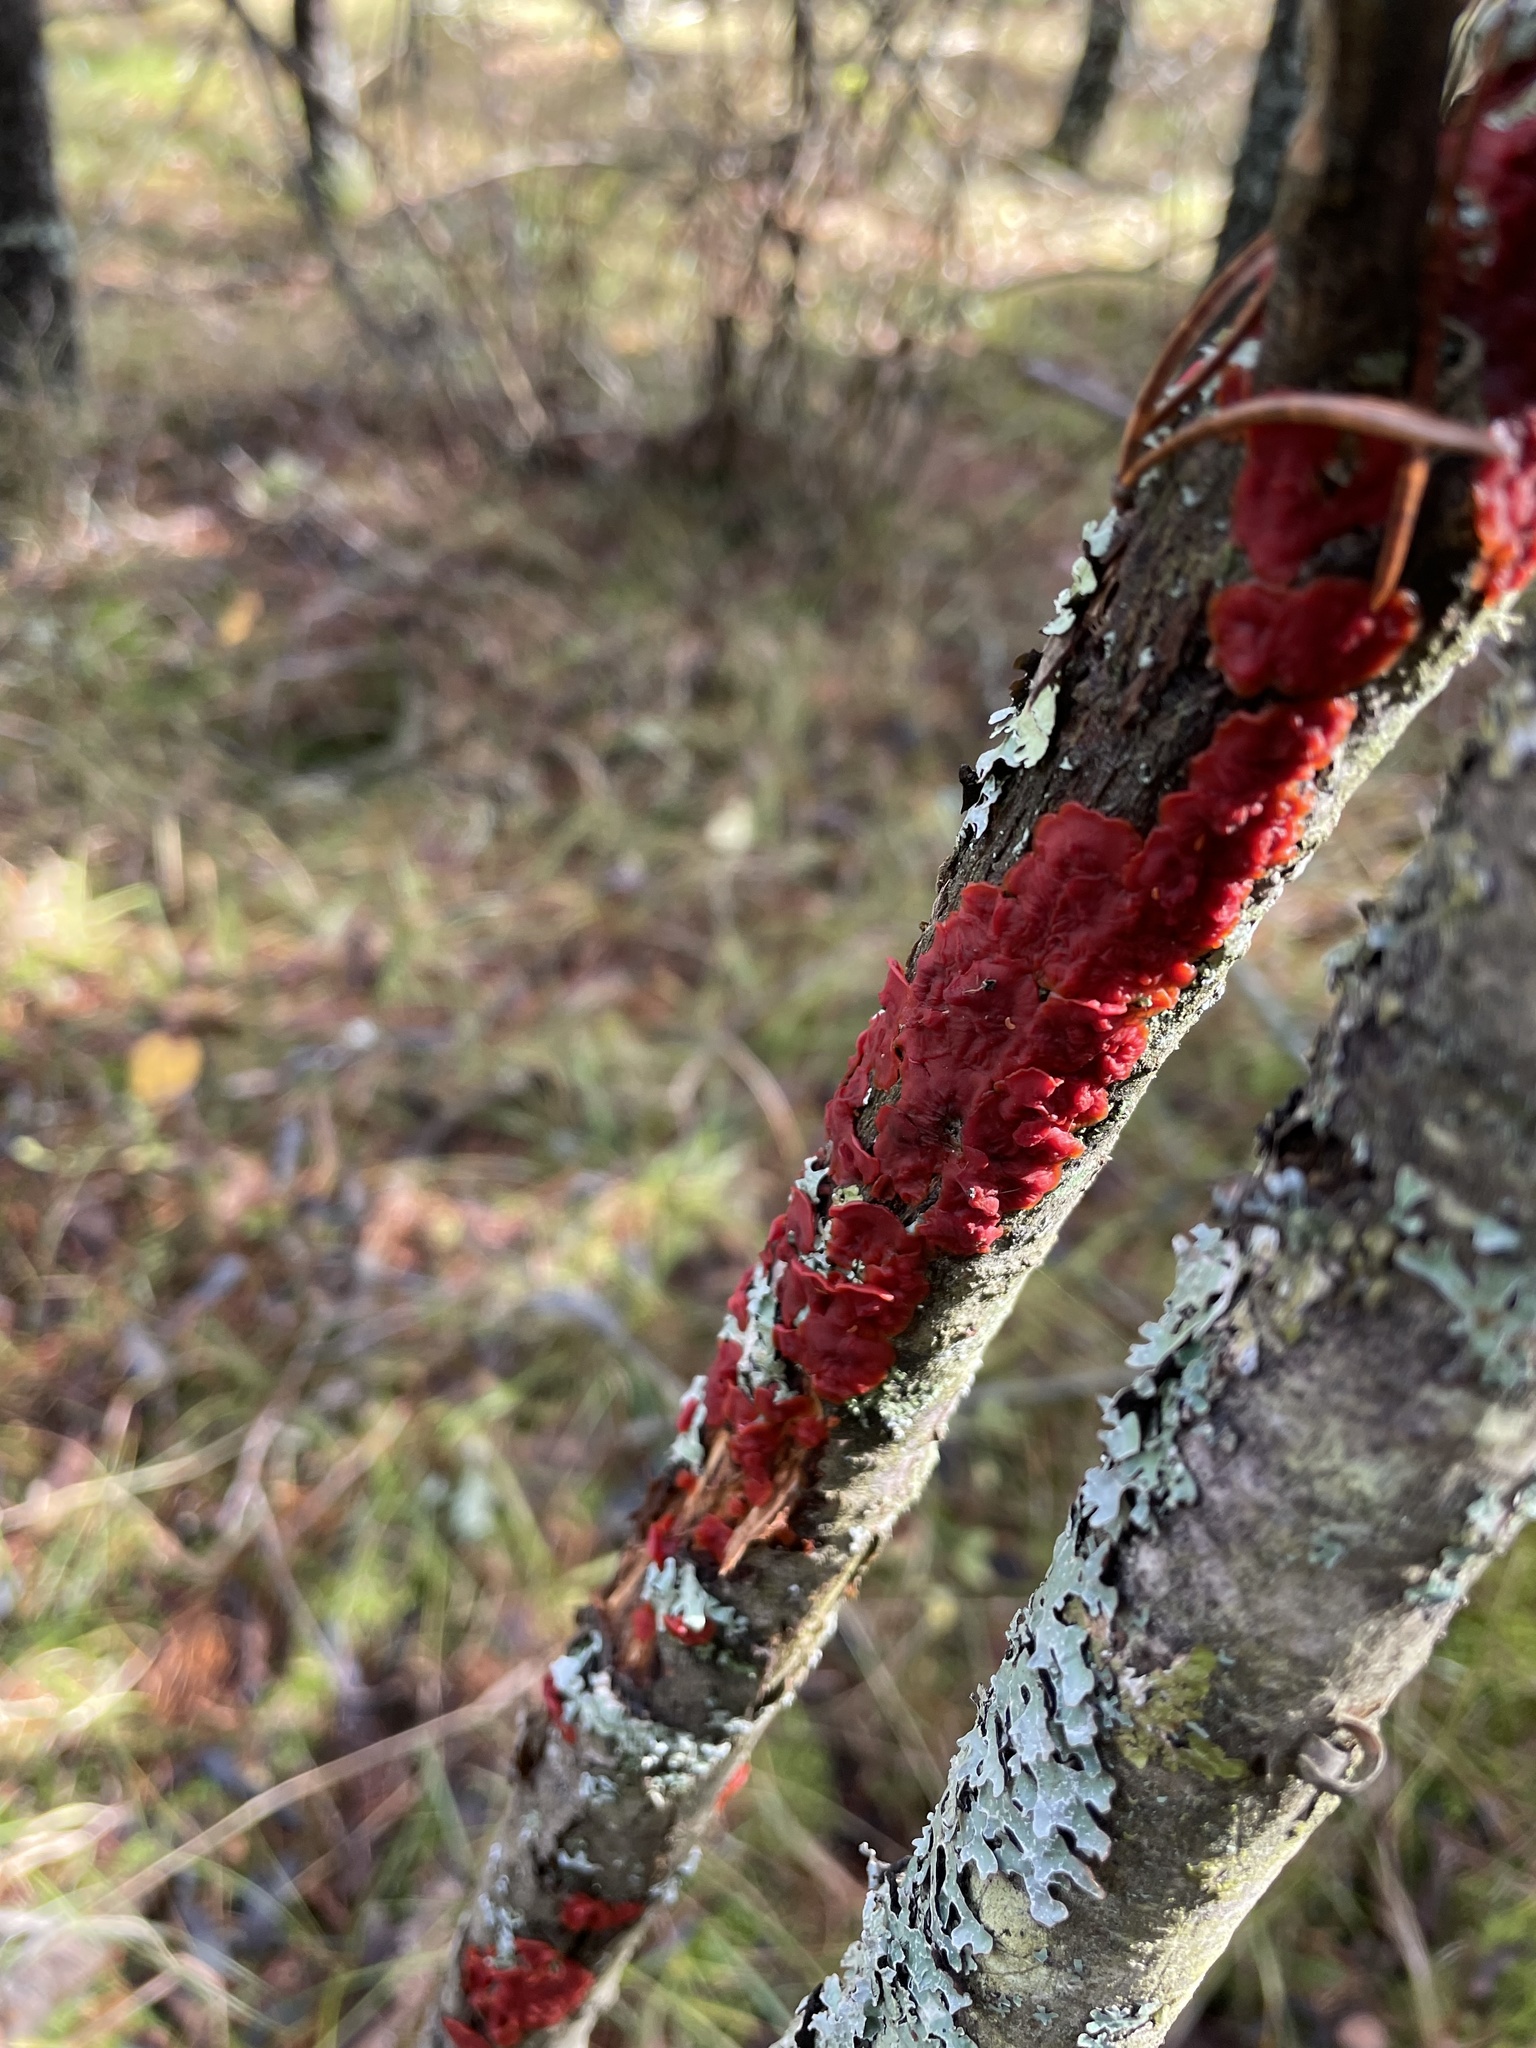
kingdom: Fungi
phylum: Basidiomycota
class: Agaricomycetes
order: Russulales
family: Peniophoraceae
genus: Peniophora
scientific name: Peniophora rufa
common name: Red tree brain fungus
